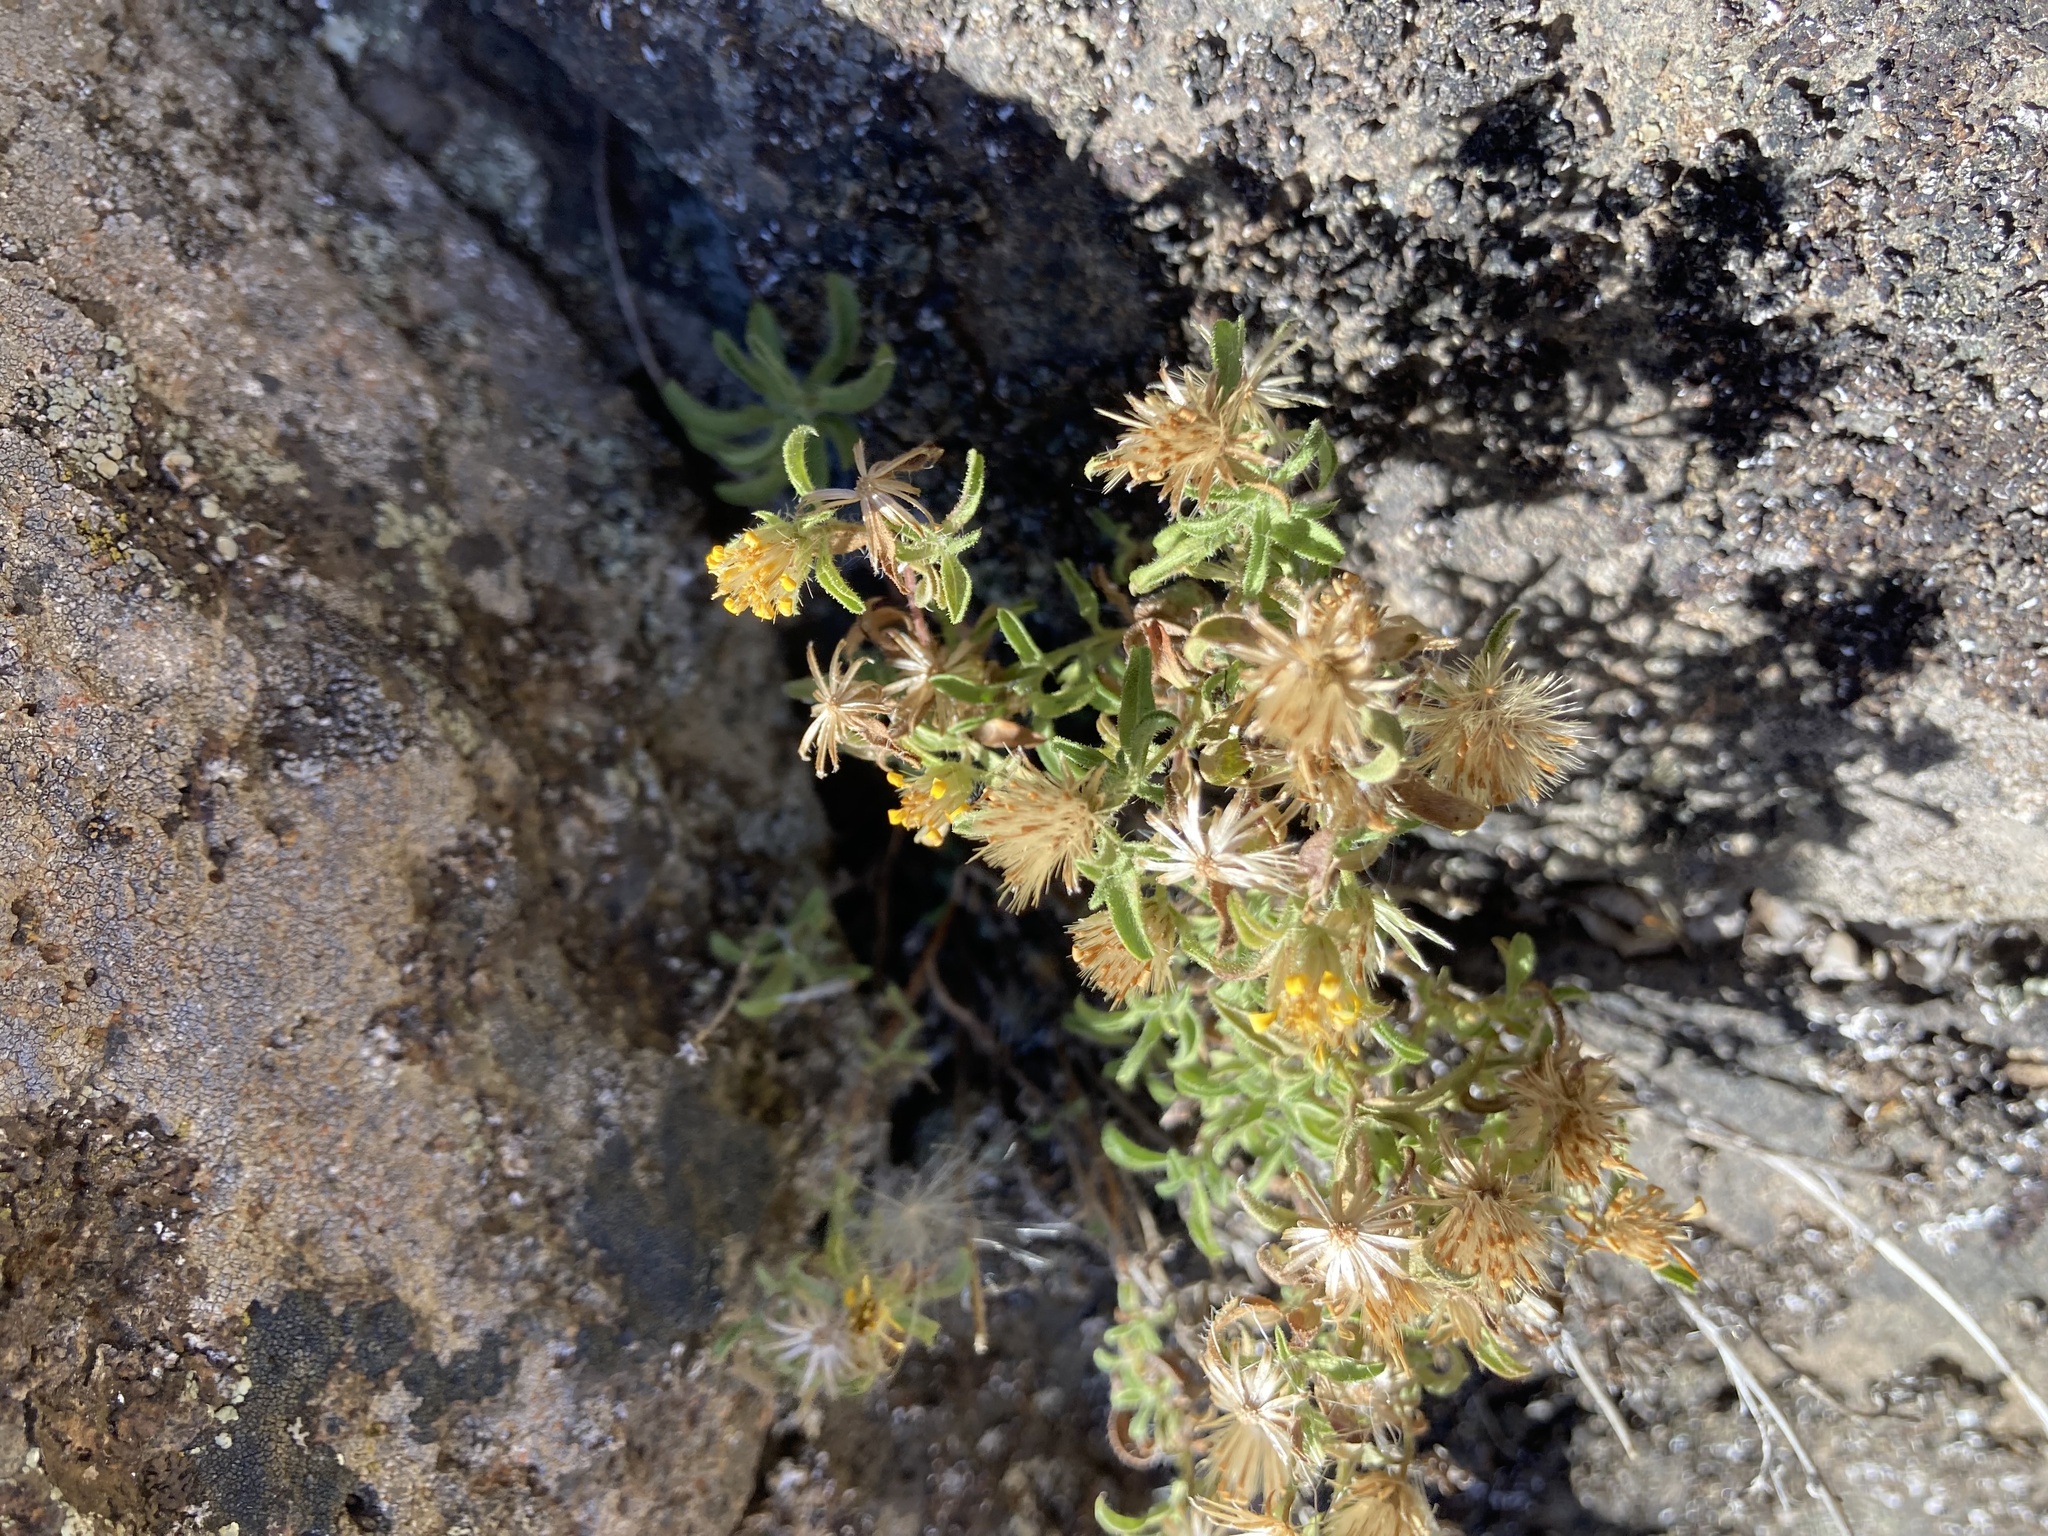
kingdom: Plantae
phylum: Tracheophyta
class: Magnoliopsida
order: Asterales
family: Asteraceae
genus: Heterotheca
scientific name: Heterotheca paniculata
